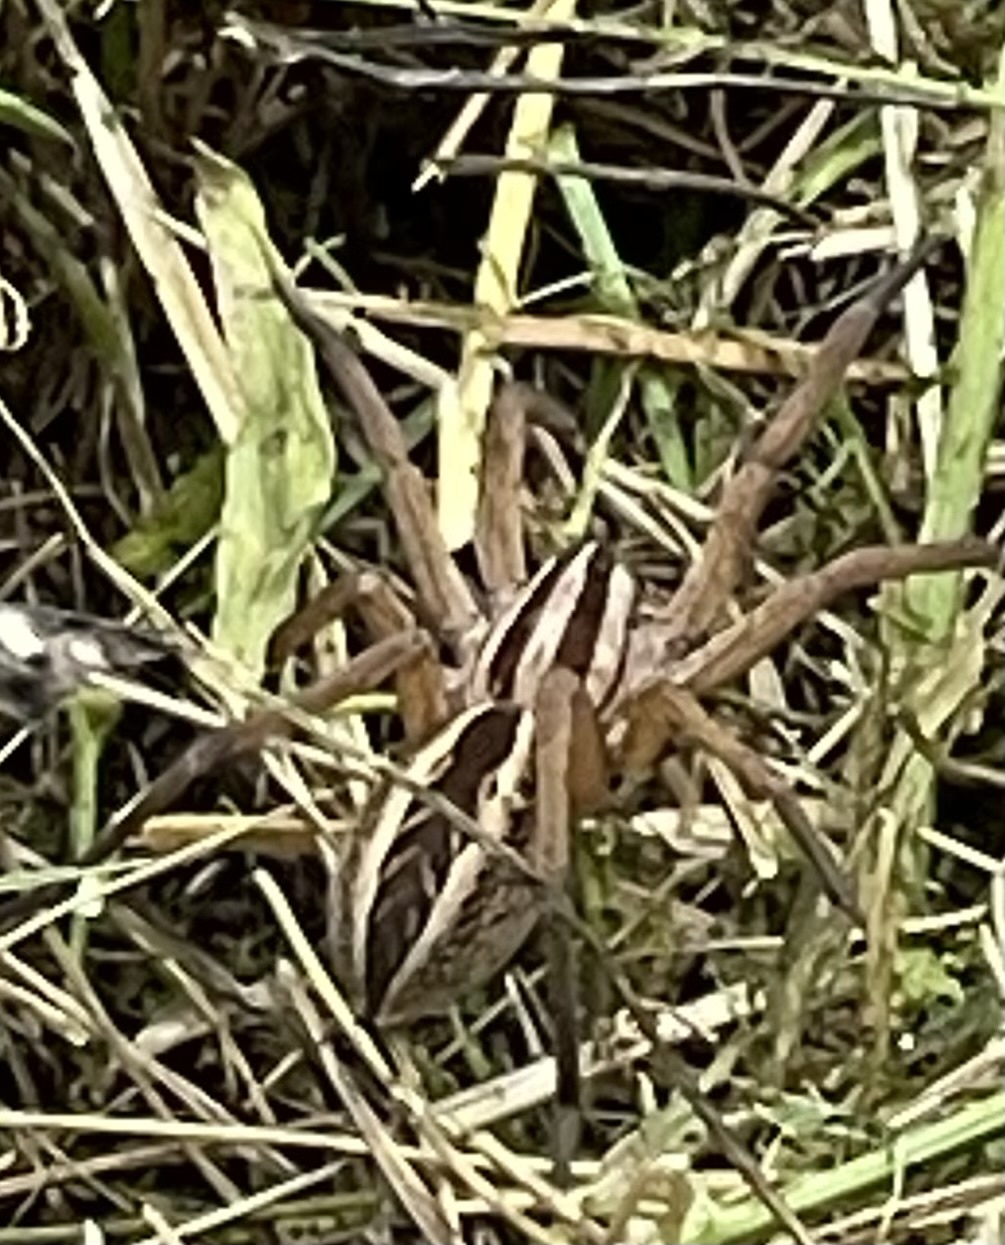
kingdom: Animalia
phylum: Arthropoda
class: Arachnida
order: Araneae
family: Lycosidae
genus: Rabidosa
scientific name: Rabidosa rabida
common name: Rabid wolf spider
